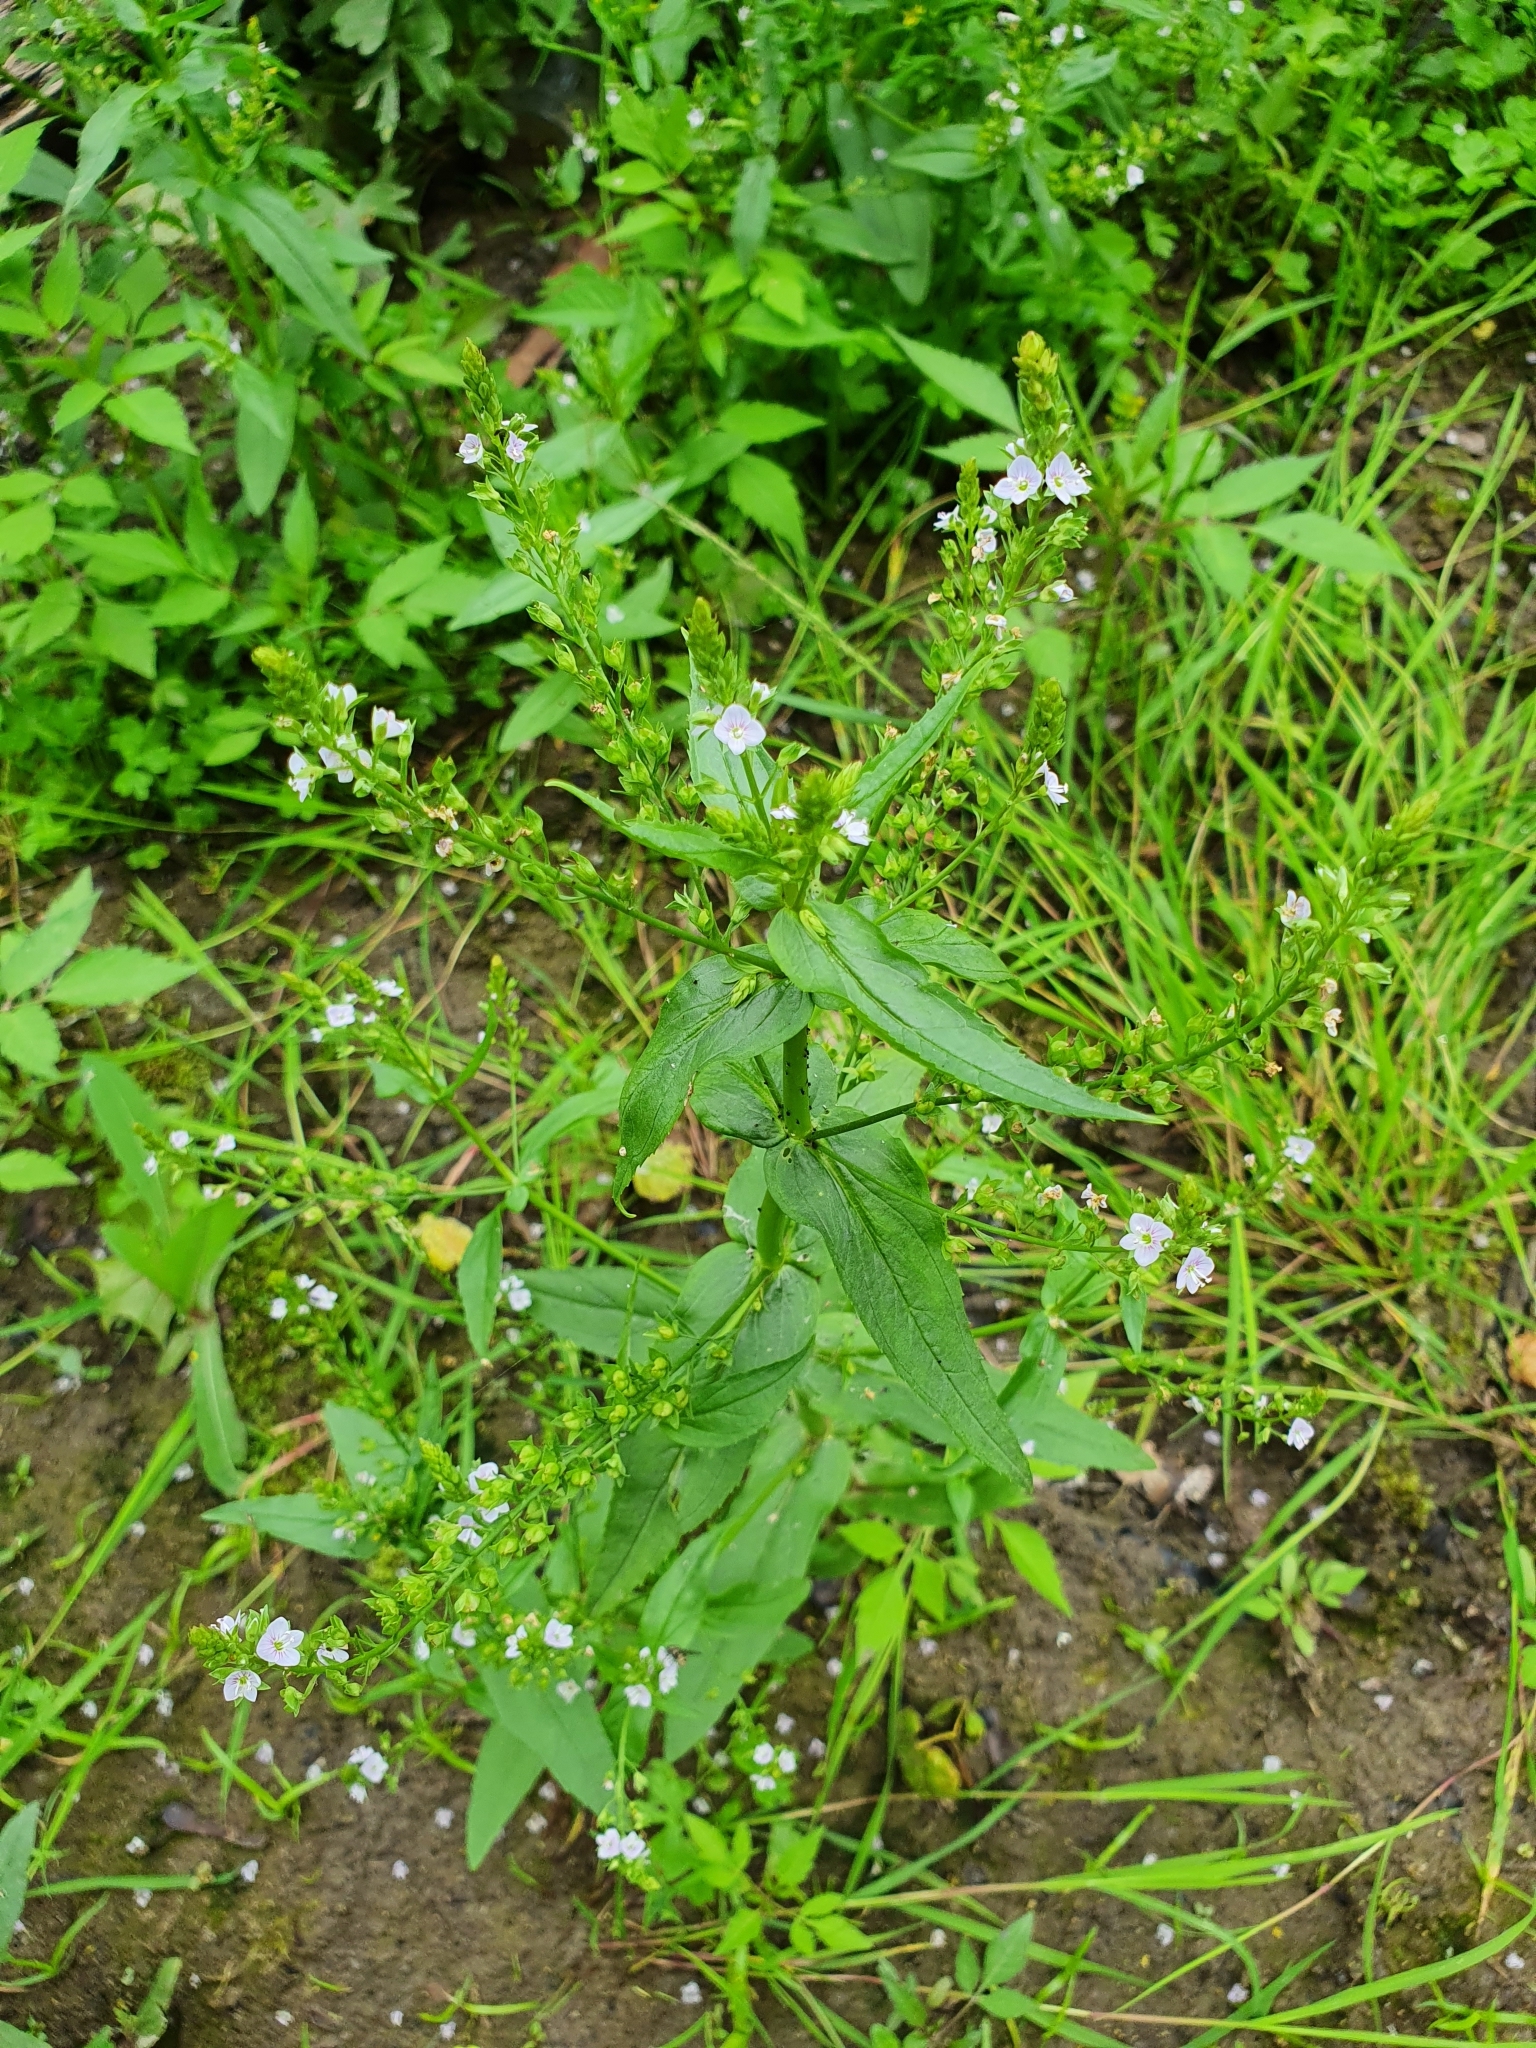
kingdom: Plantae
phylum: Tracheophyta
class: Magnoliopsida
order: Lamiales
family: Plantaginaceae
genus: Veronica
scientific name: Veronica anagallis-aquatica
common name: Water speedwell
